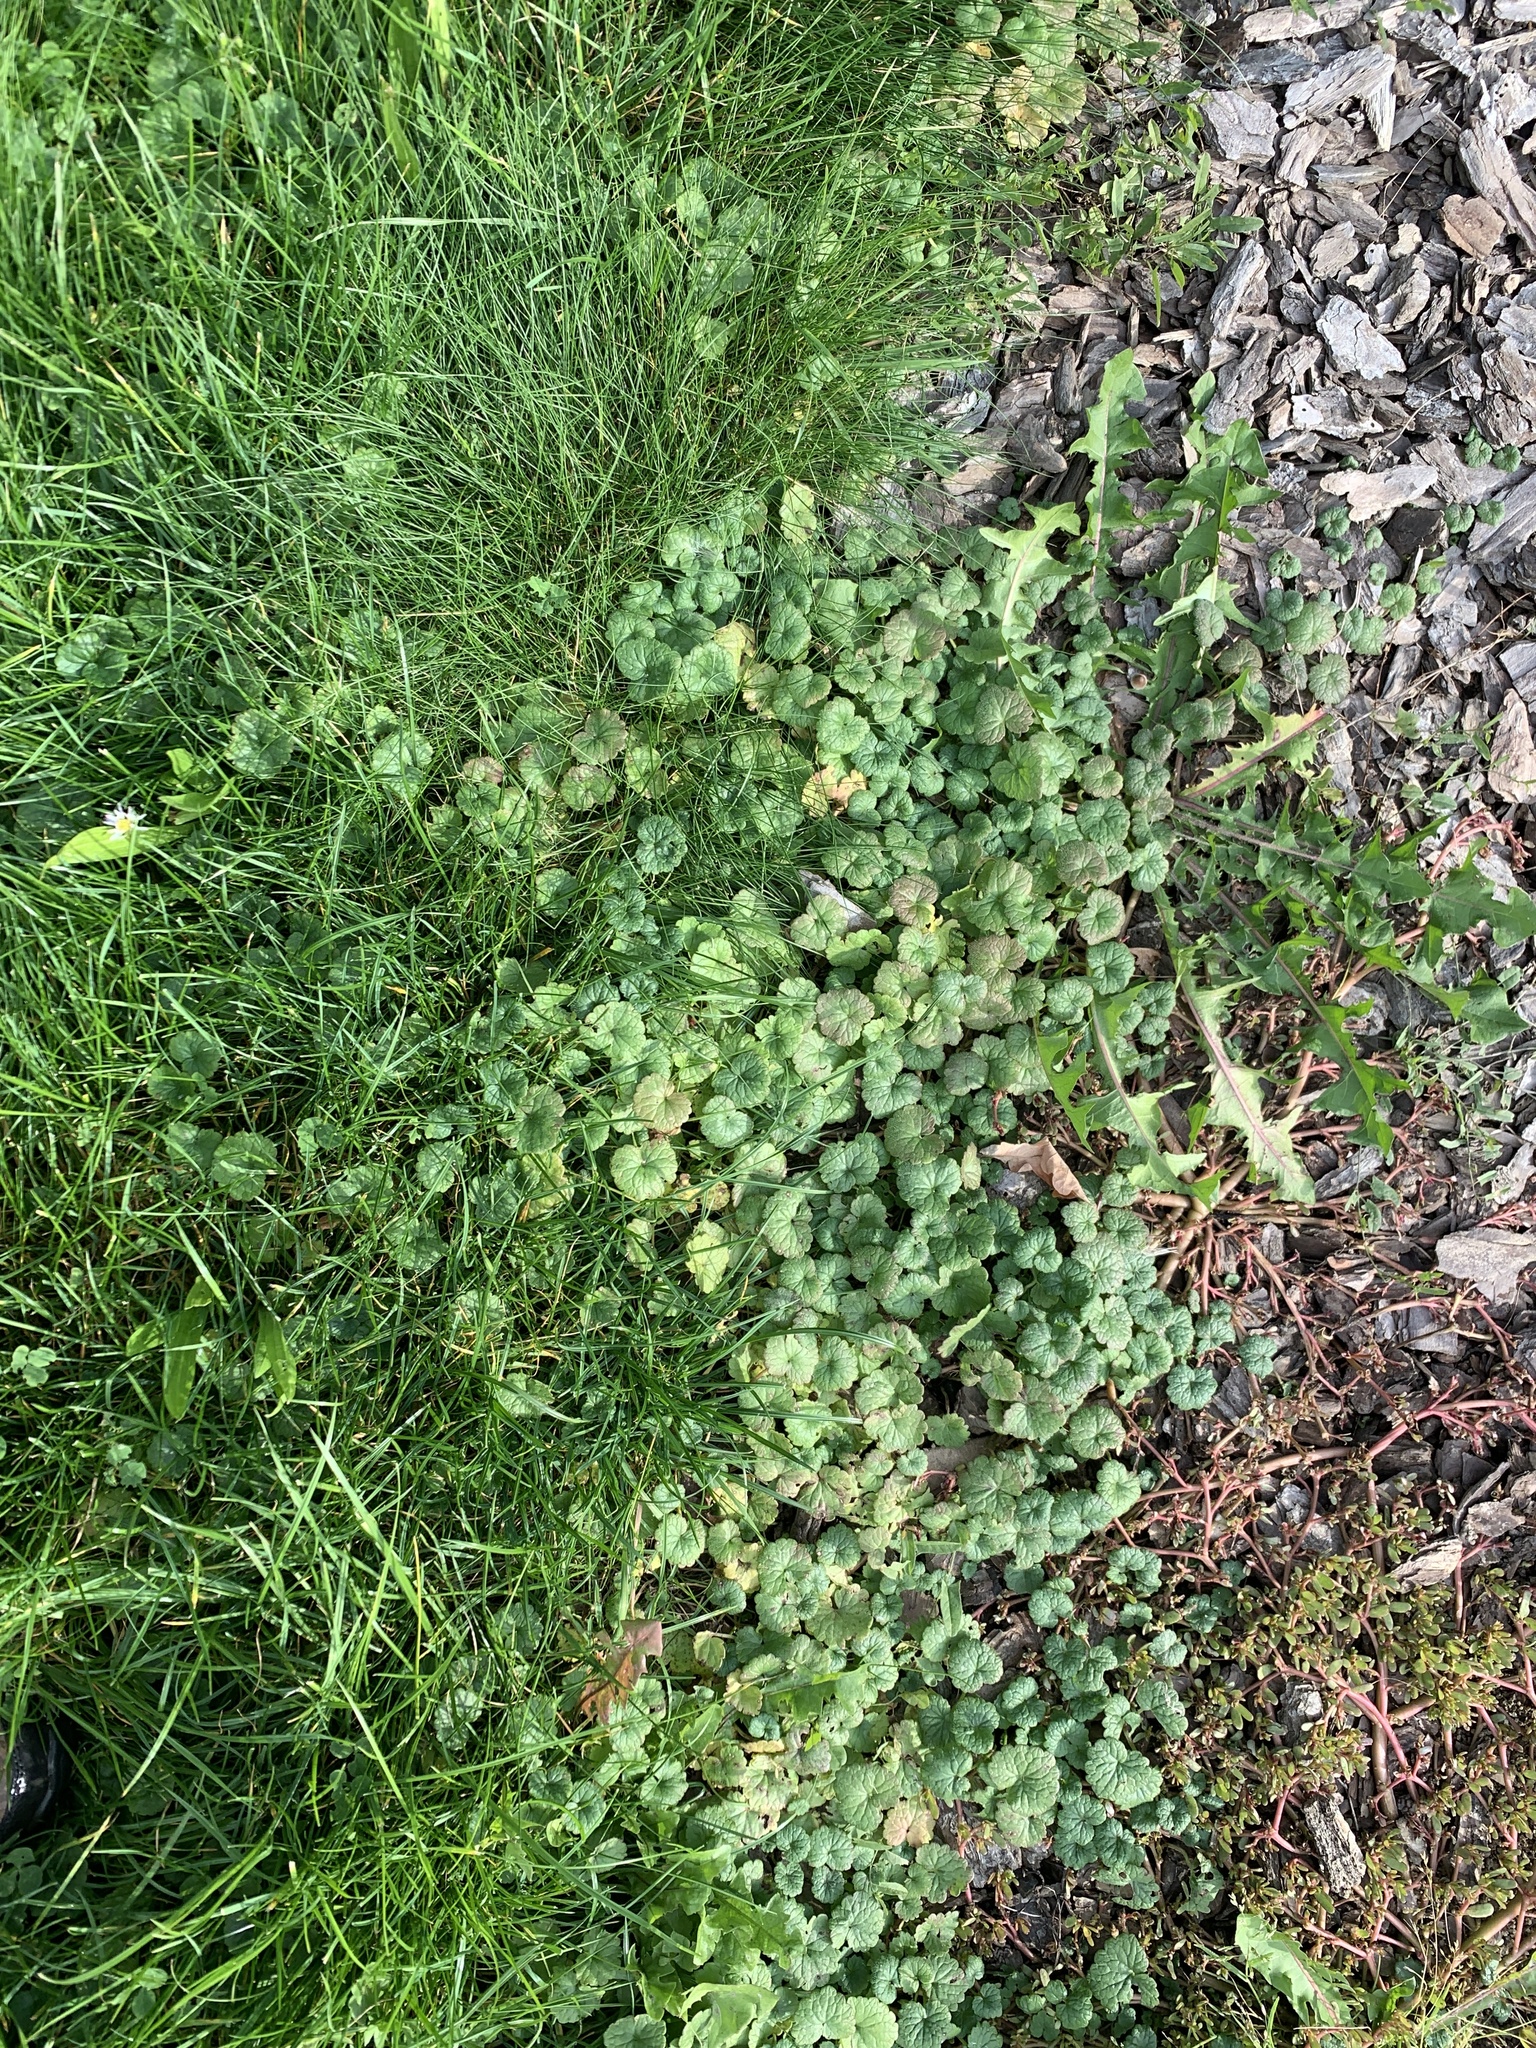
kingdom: Plantae
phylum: Tracheophyta
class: Magnoliopsida
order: Lamiales
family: Lamiaceae
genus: Glechoma
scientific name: Glechoma hederacea
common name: Ground ivy
